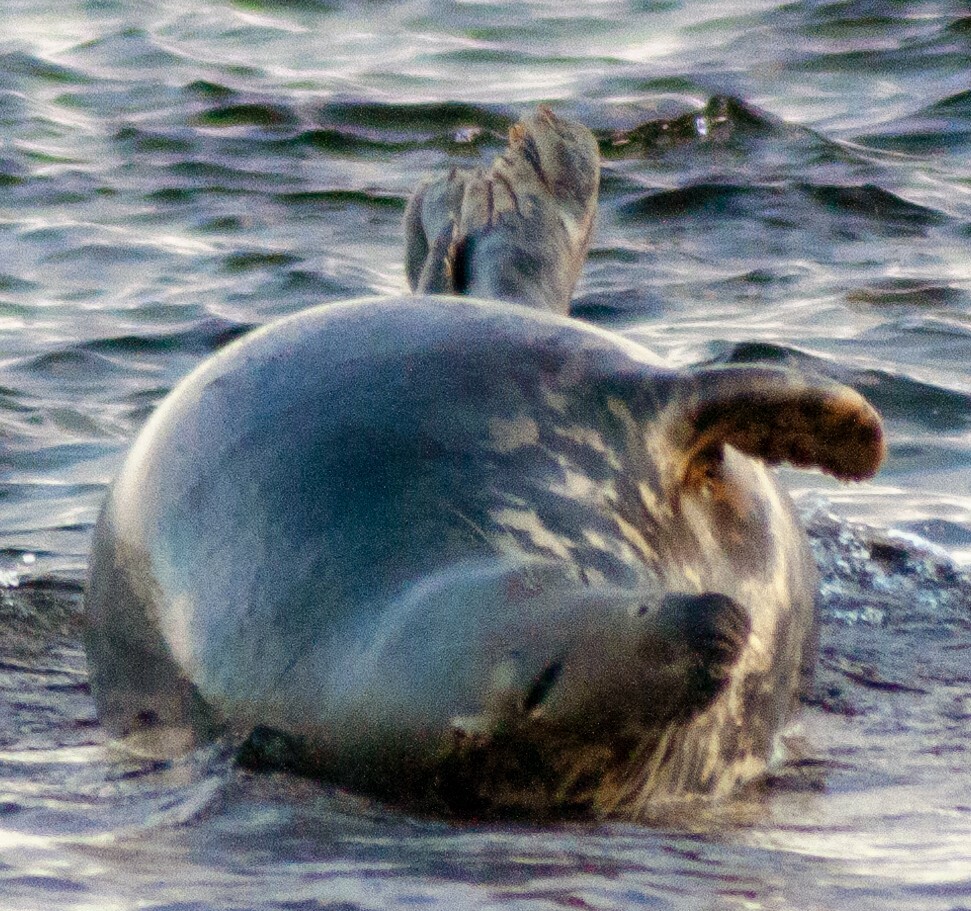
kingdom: Animalia
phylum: Chordata
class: Mammalia
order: Carnivora
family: Phocidae
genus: Halichoerus
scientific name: Halichoerus grypus
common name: Grey seal
